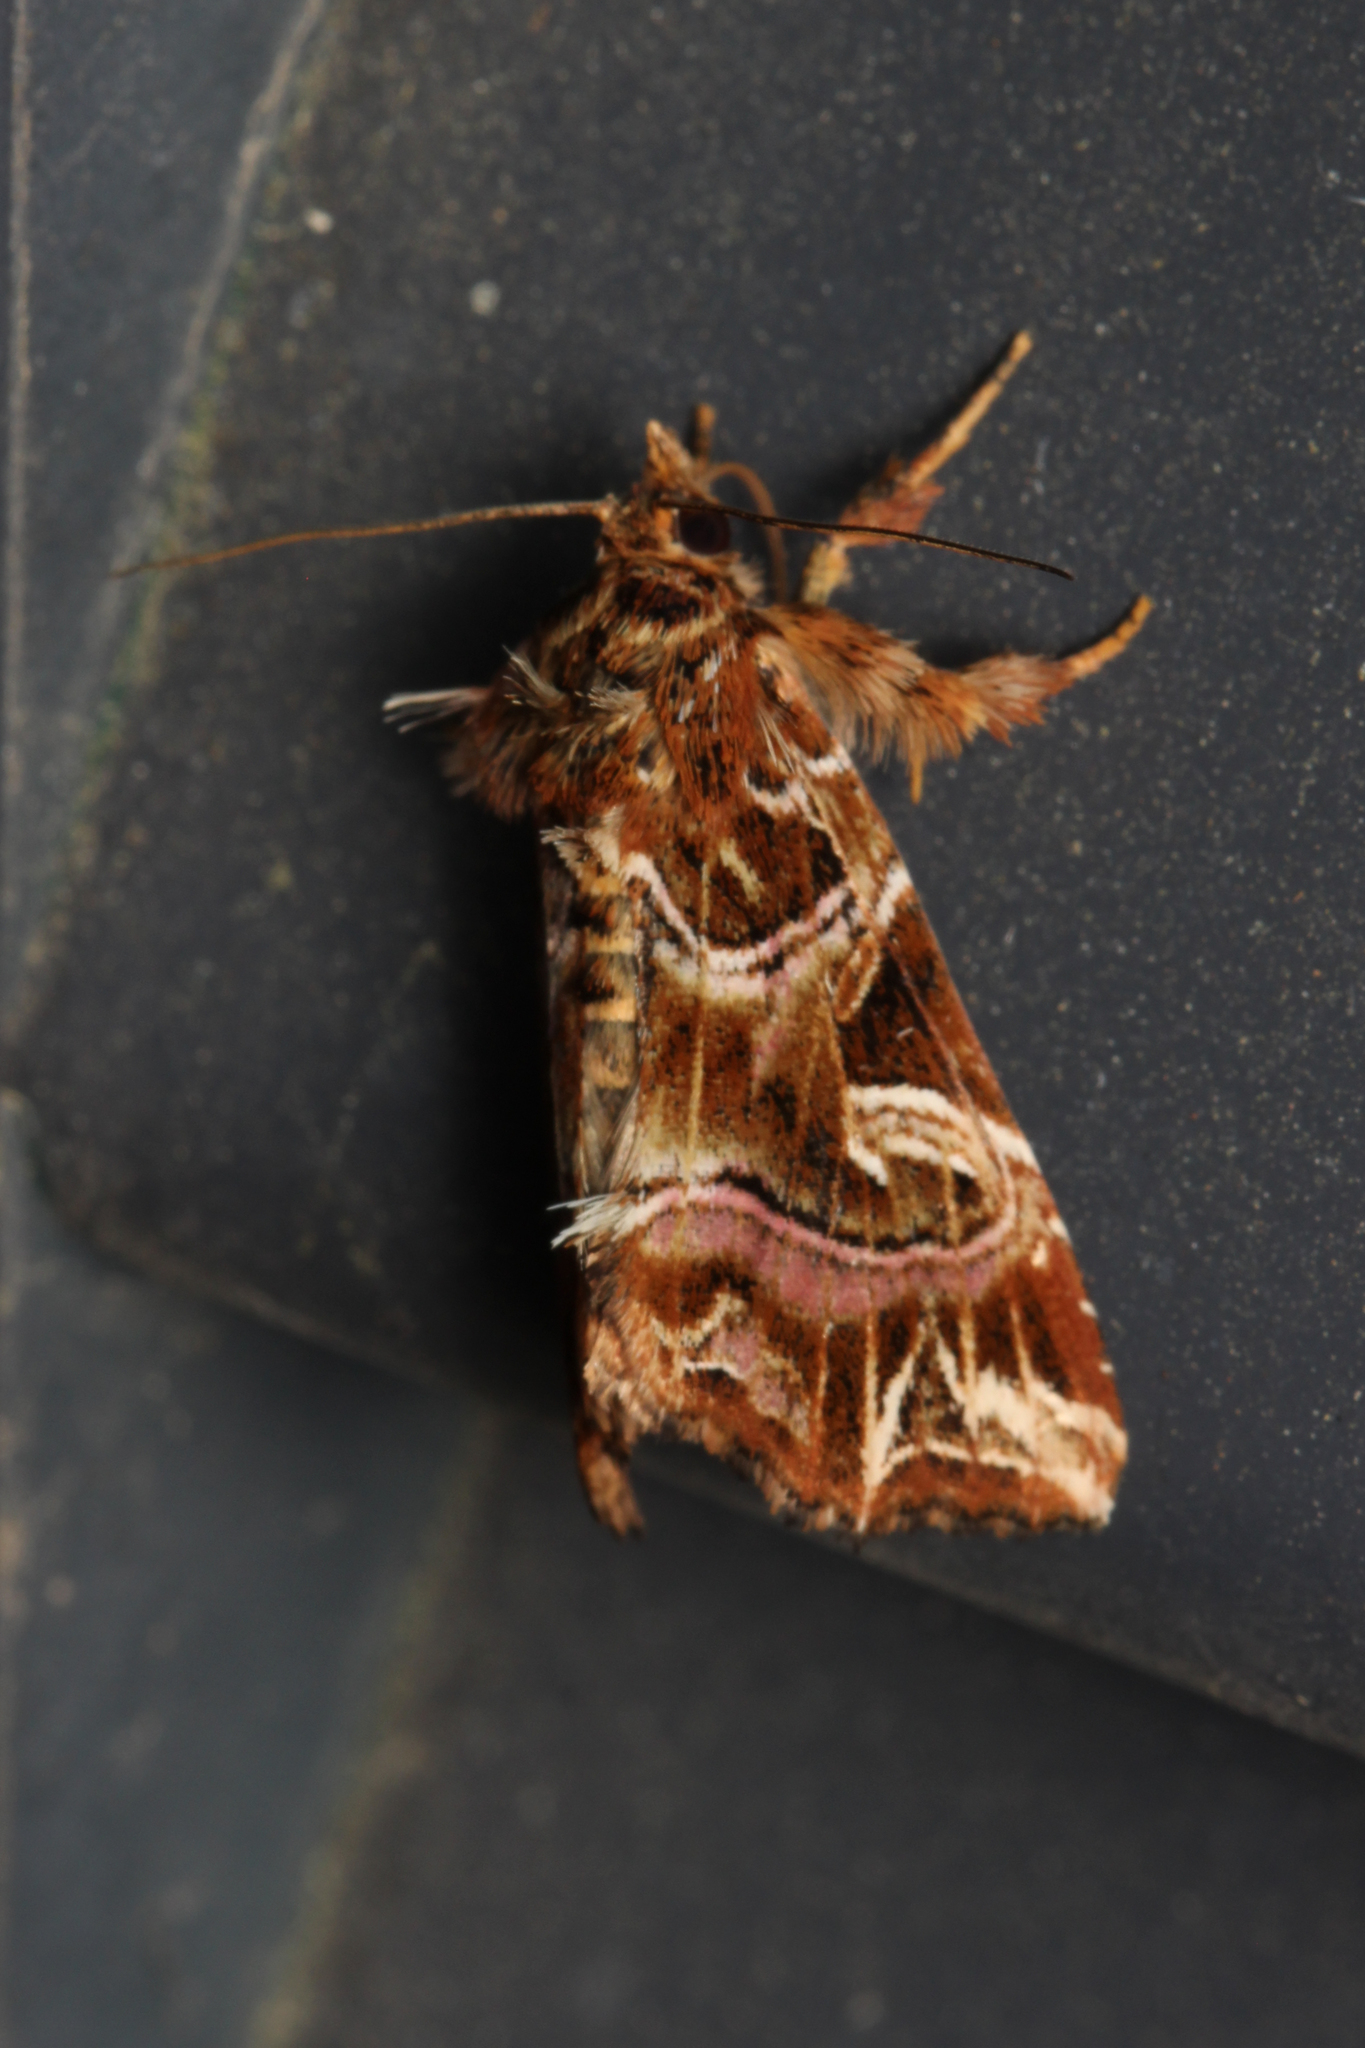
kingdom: Animalia
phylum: Arthropoda
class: Insecta
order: Lepidoptera
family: Noctuidae
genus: Callopistria
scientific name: Callopistria juventina
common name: Latin
